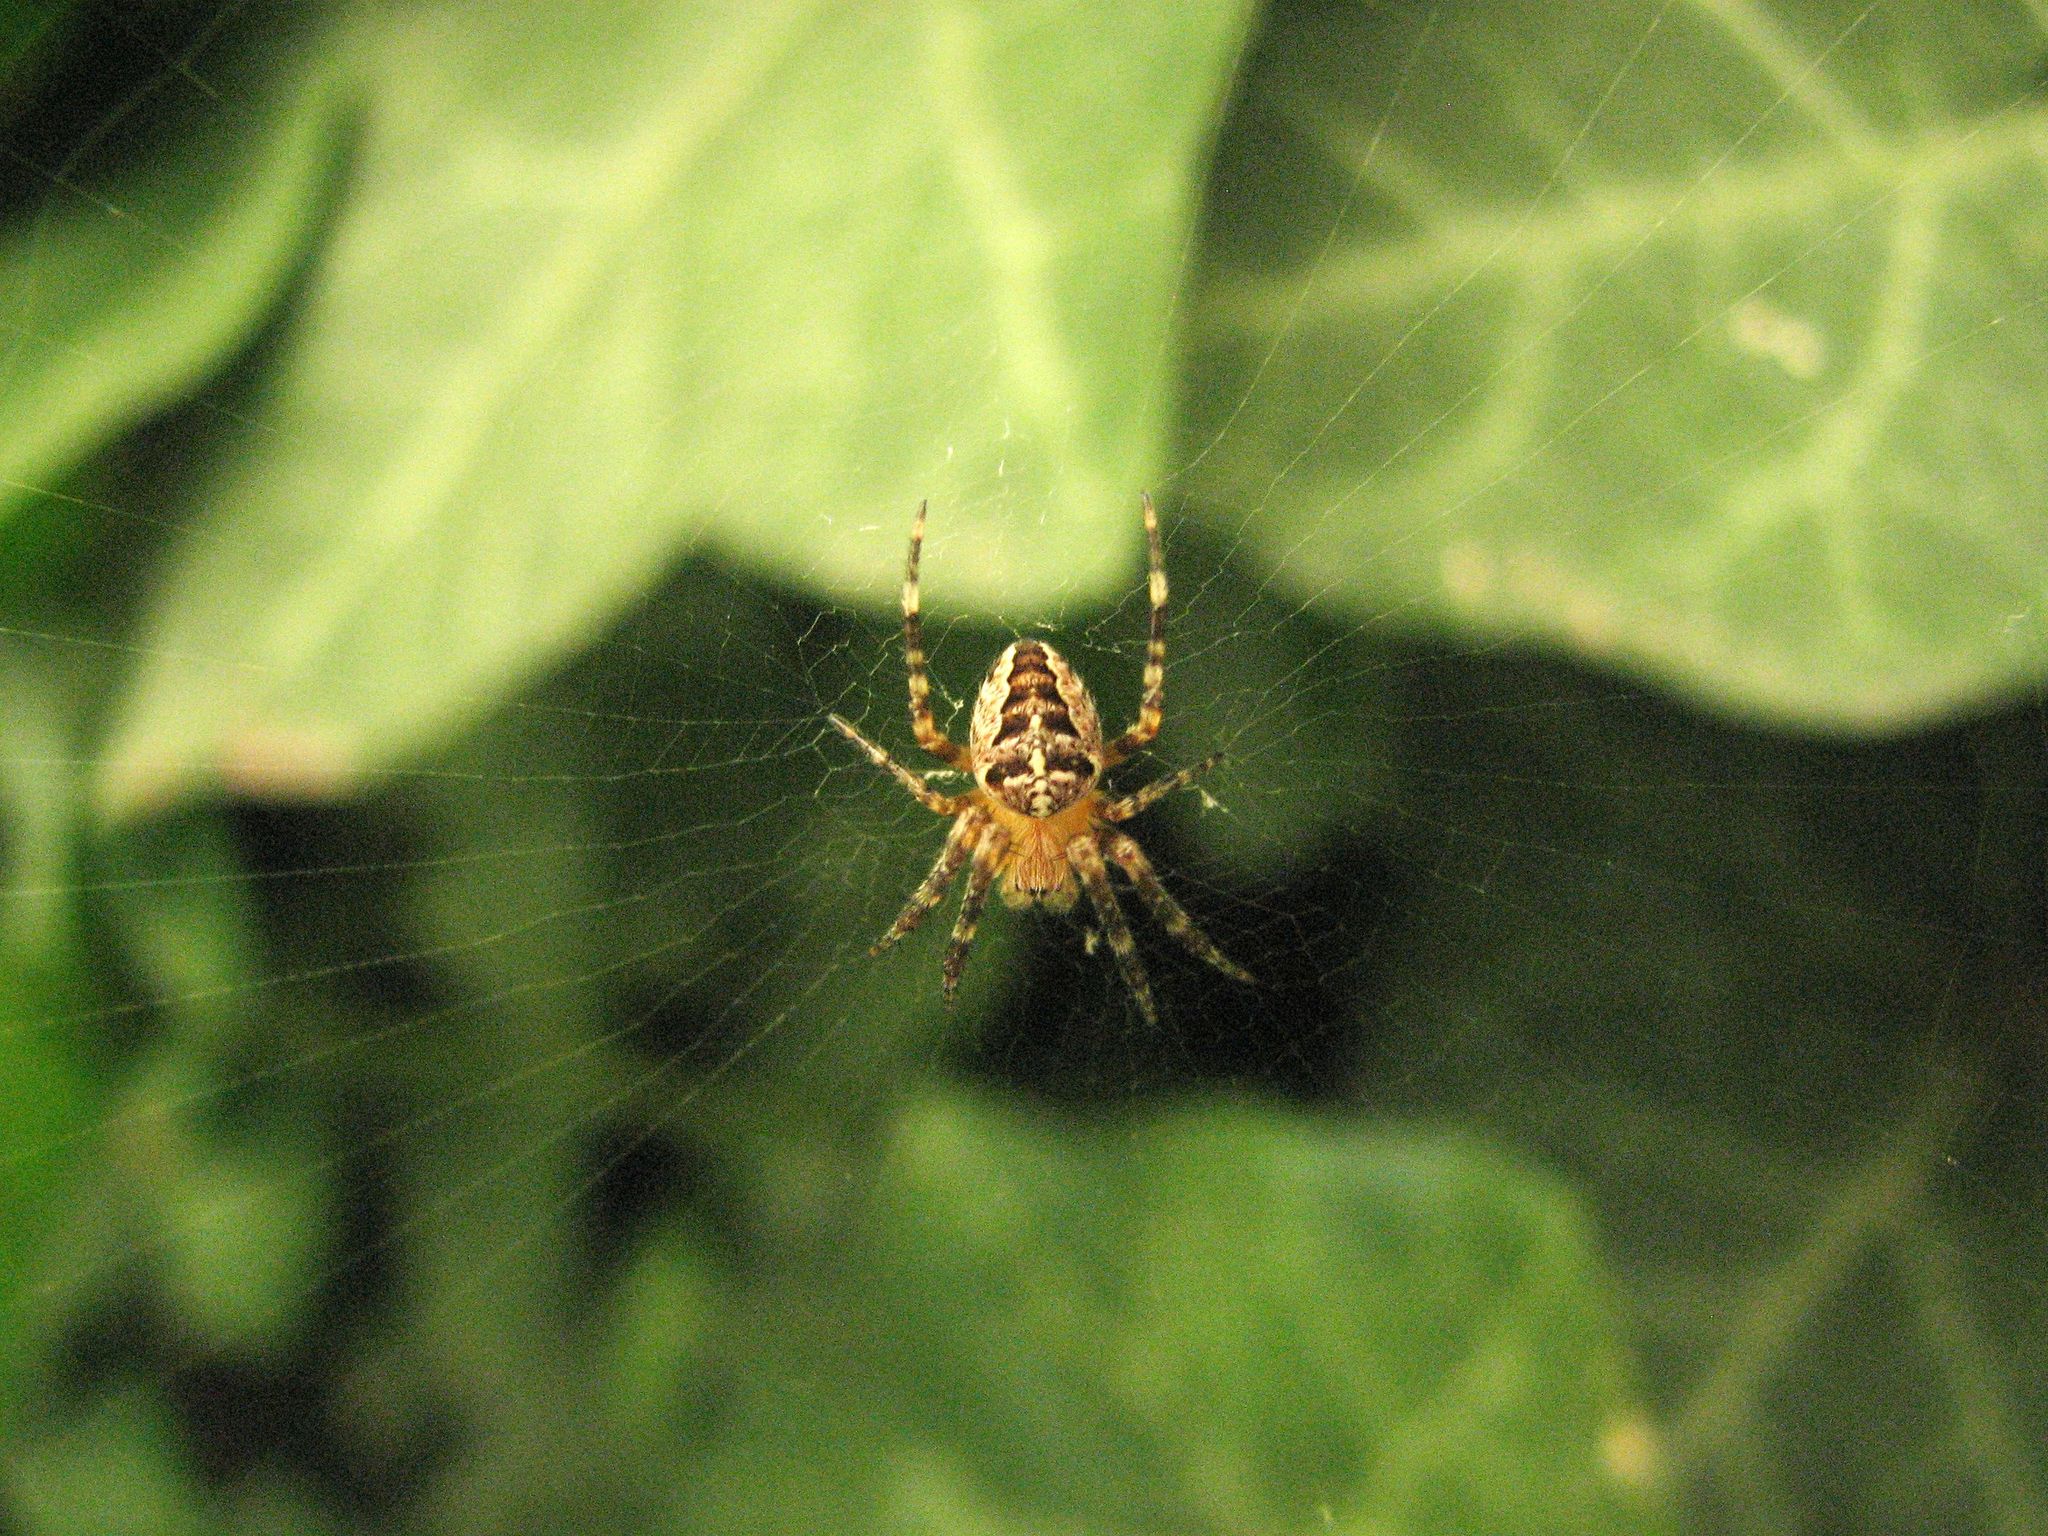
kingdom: Animalia
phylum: Arthropoda
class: Arachnida
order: Araneae
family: Araneidae
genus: Araneus
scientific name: Araneus diadematus
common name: Cross orbweaver
